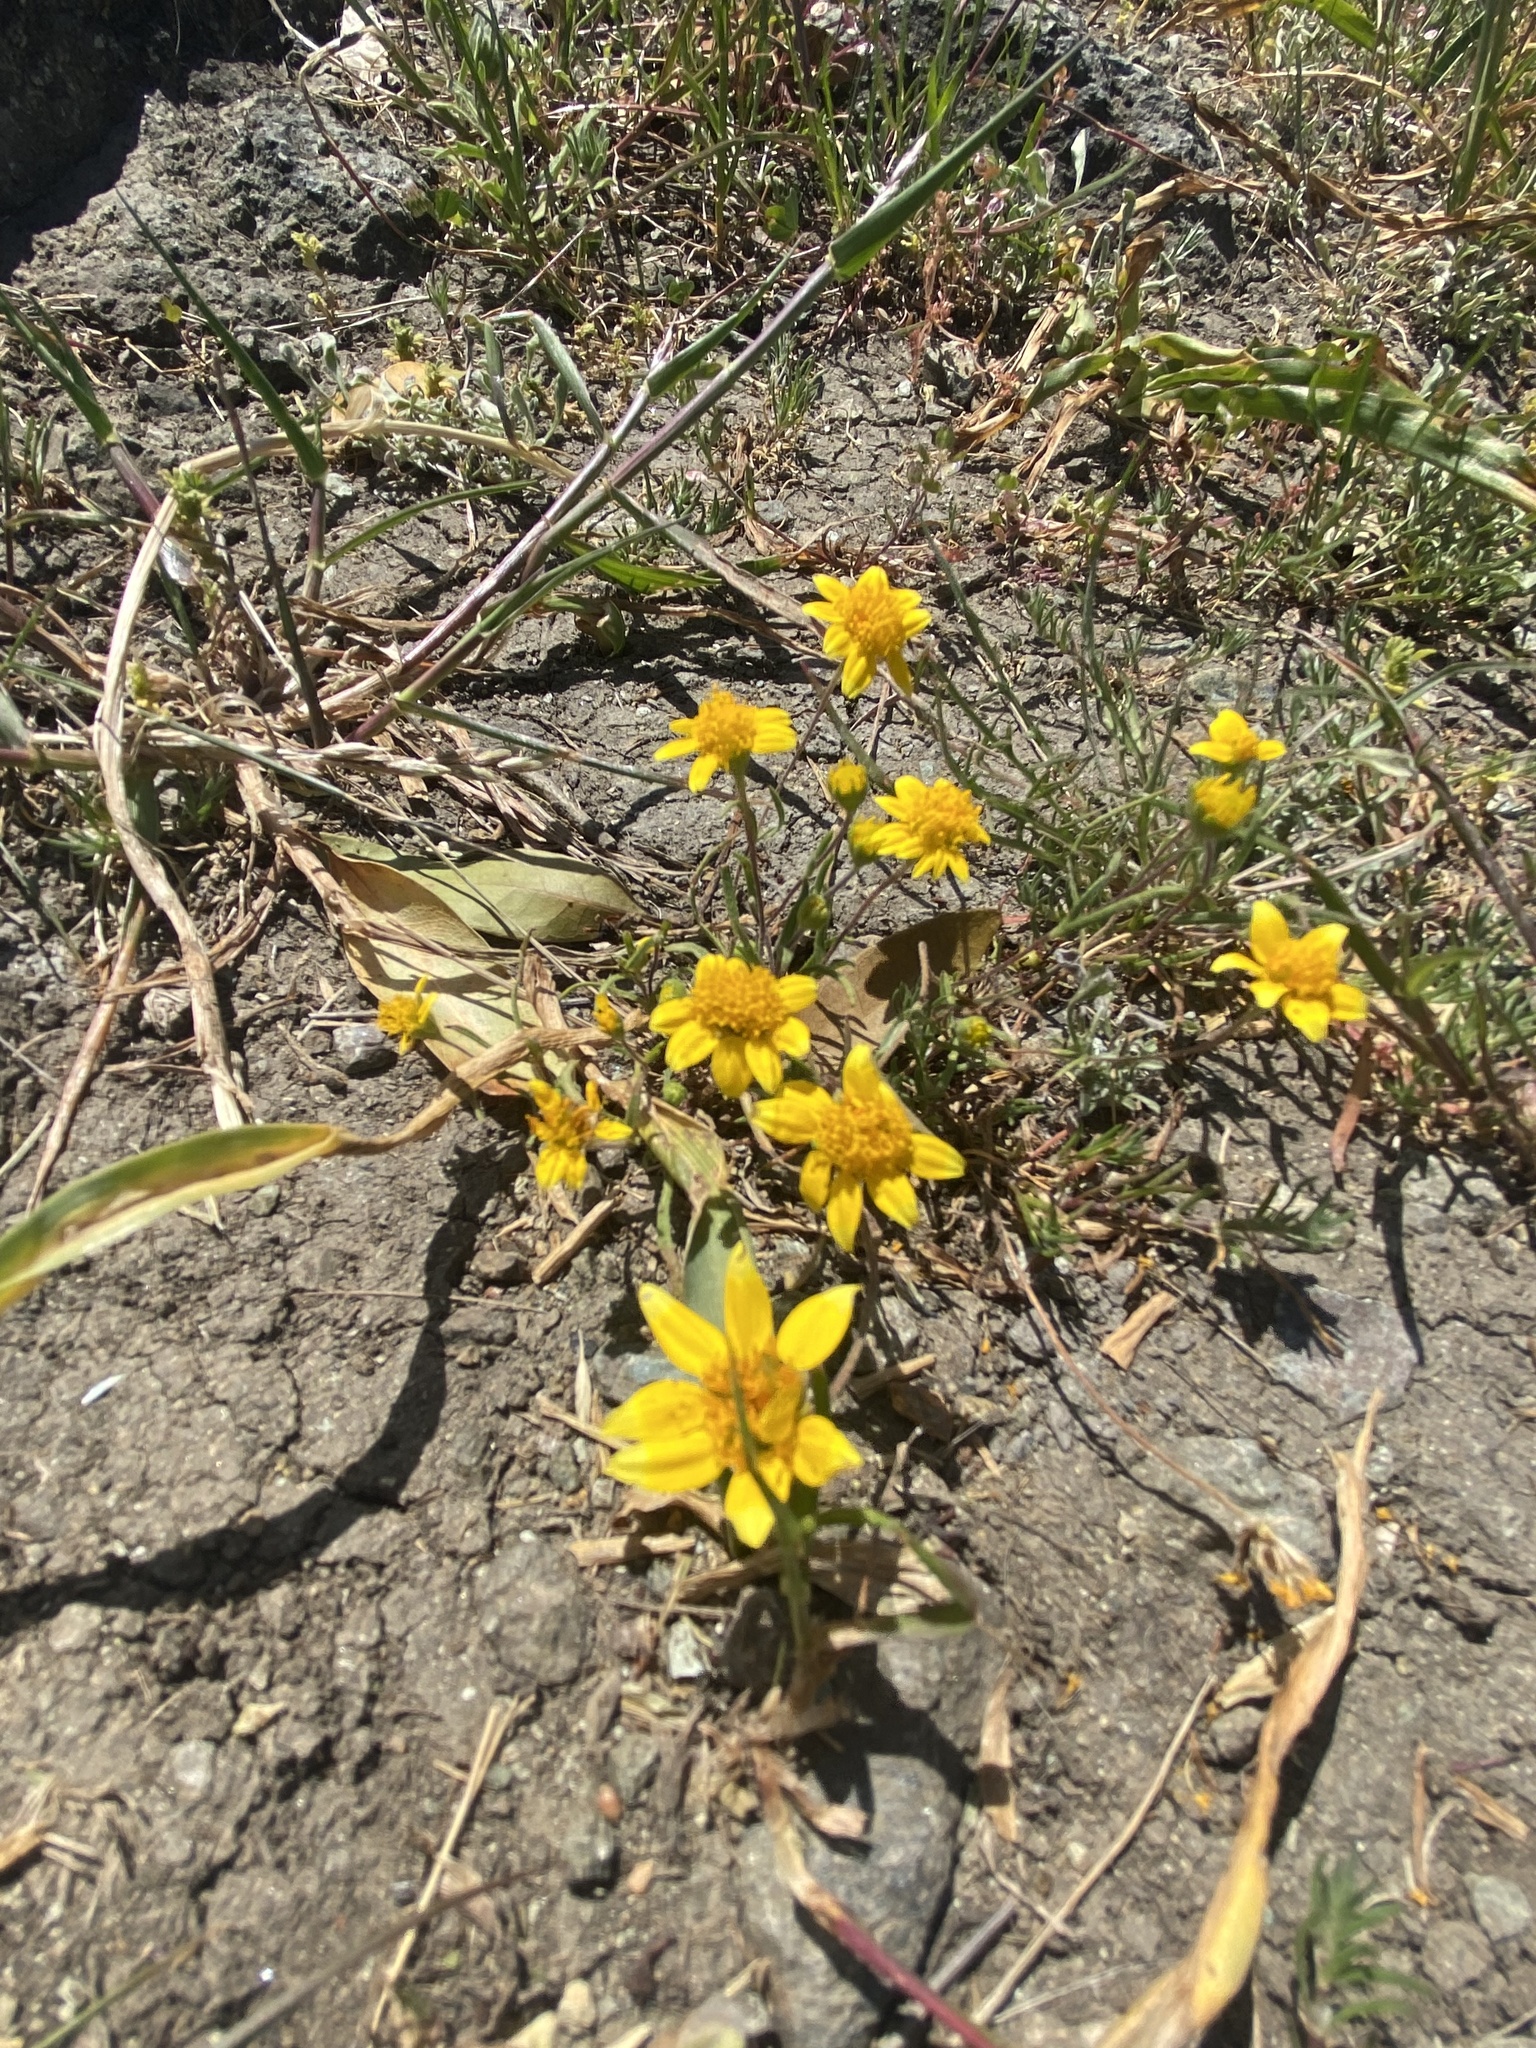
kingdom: Plantae
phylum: Tracheophyta
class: Magnoliopsida
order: Asterales
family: Asteraceae
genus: Lasthenia
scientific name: Lasthenia californica
